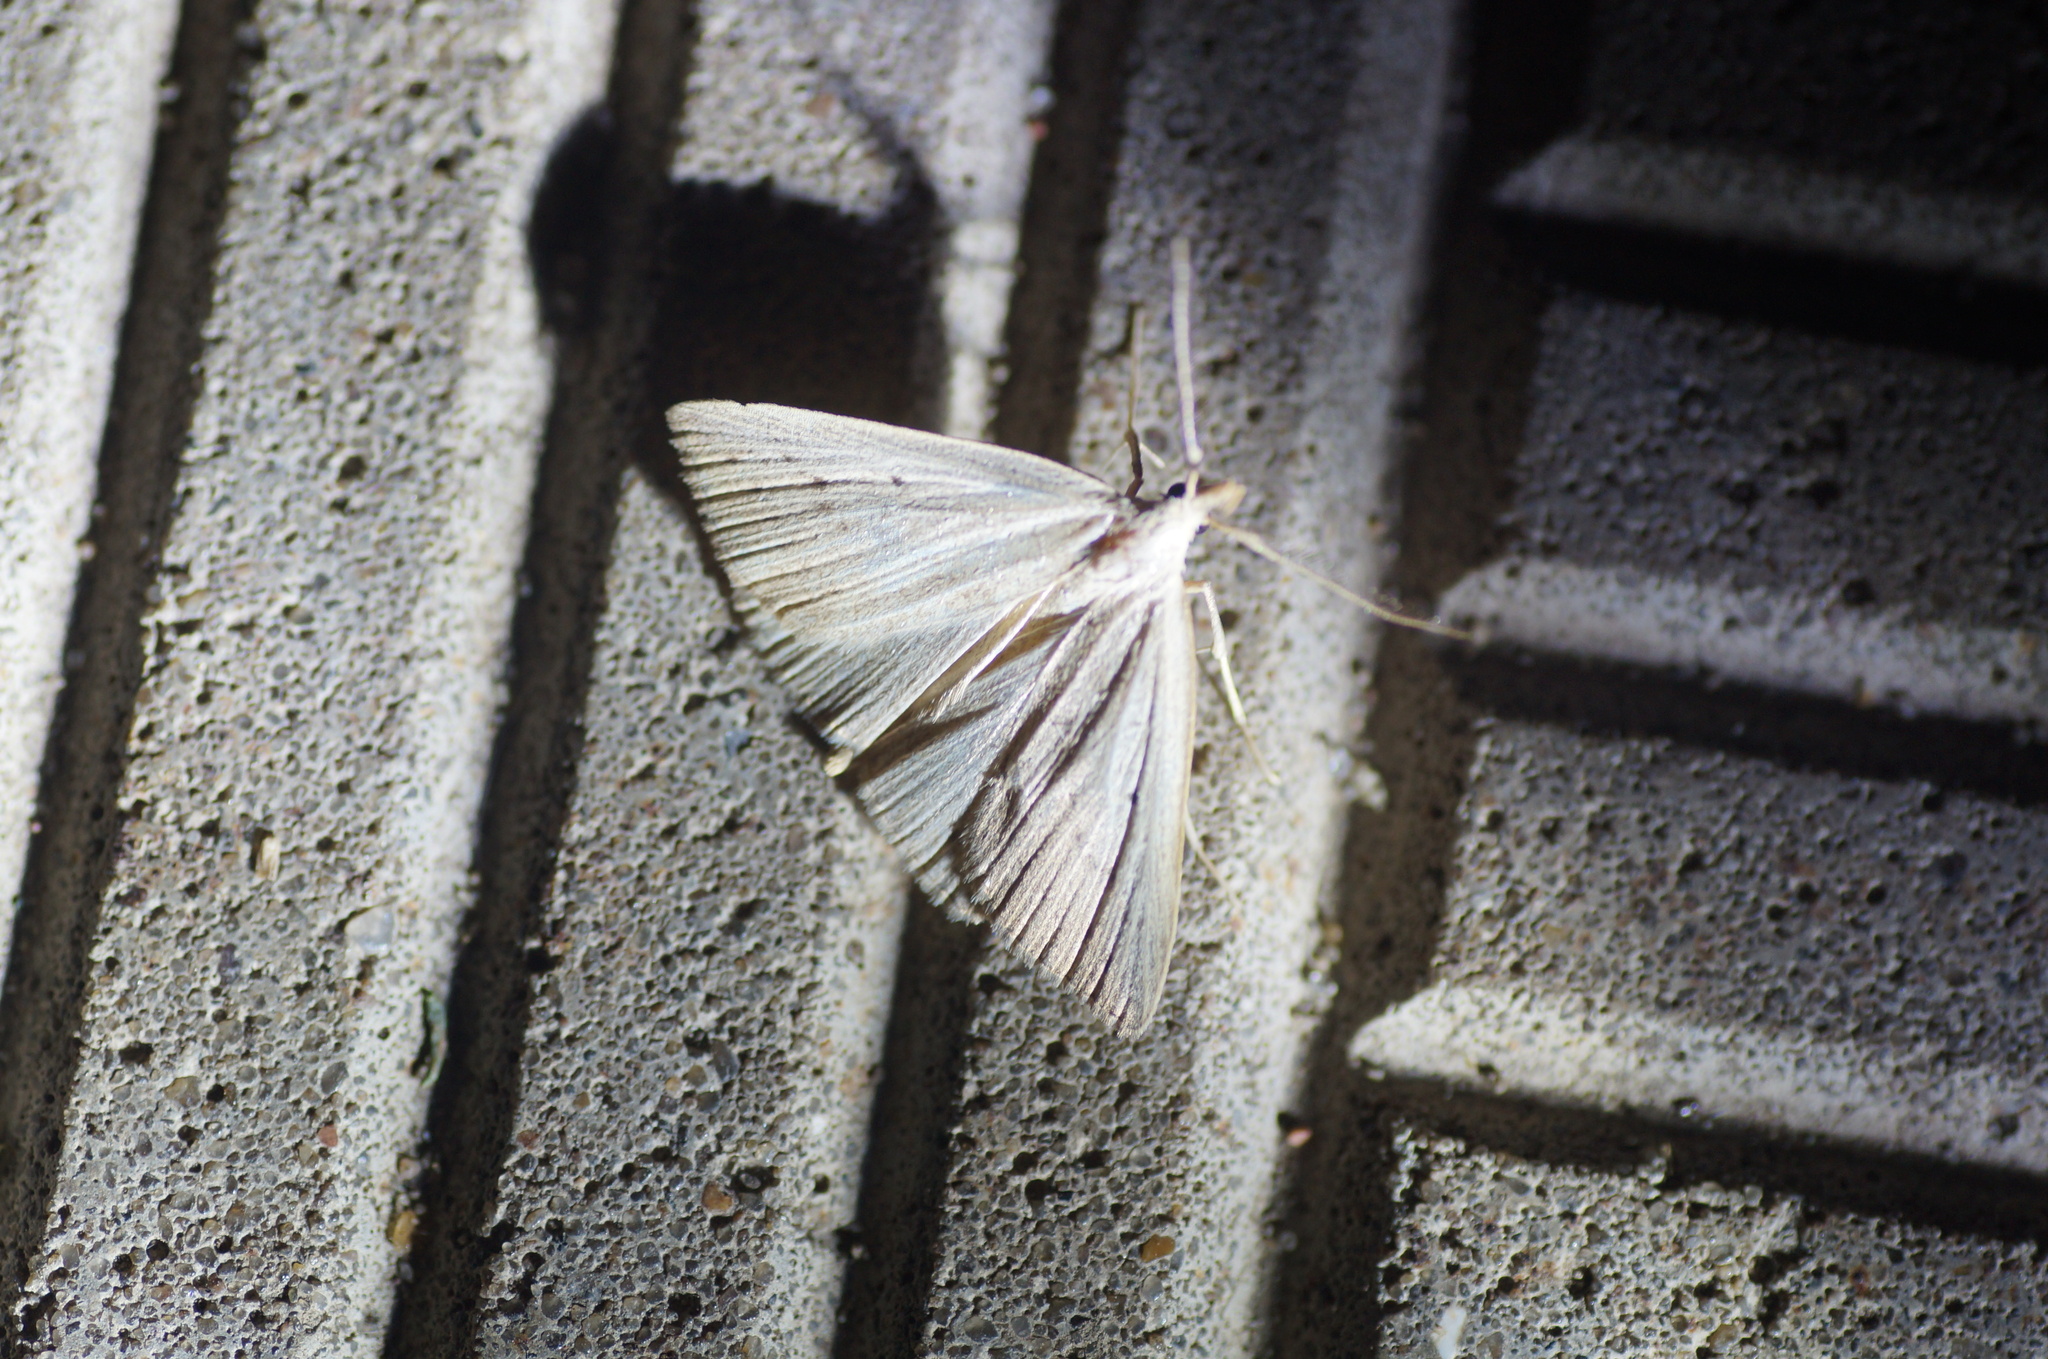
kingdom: Animalia
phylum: Arthropoda
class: Insecta
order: Lepidoptera
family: Erebidae
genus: Macrochilo
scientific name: Macrochilo cribrumalis
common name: Dotted fan-foot
